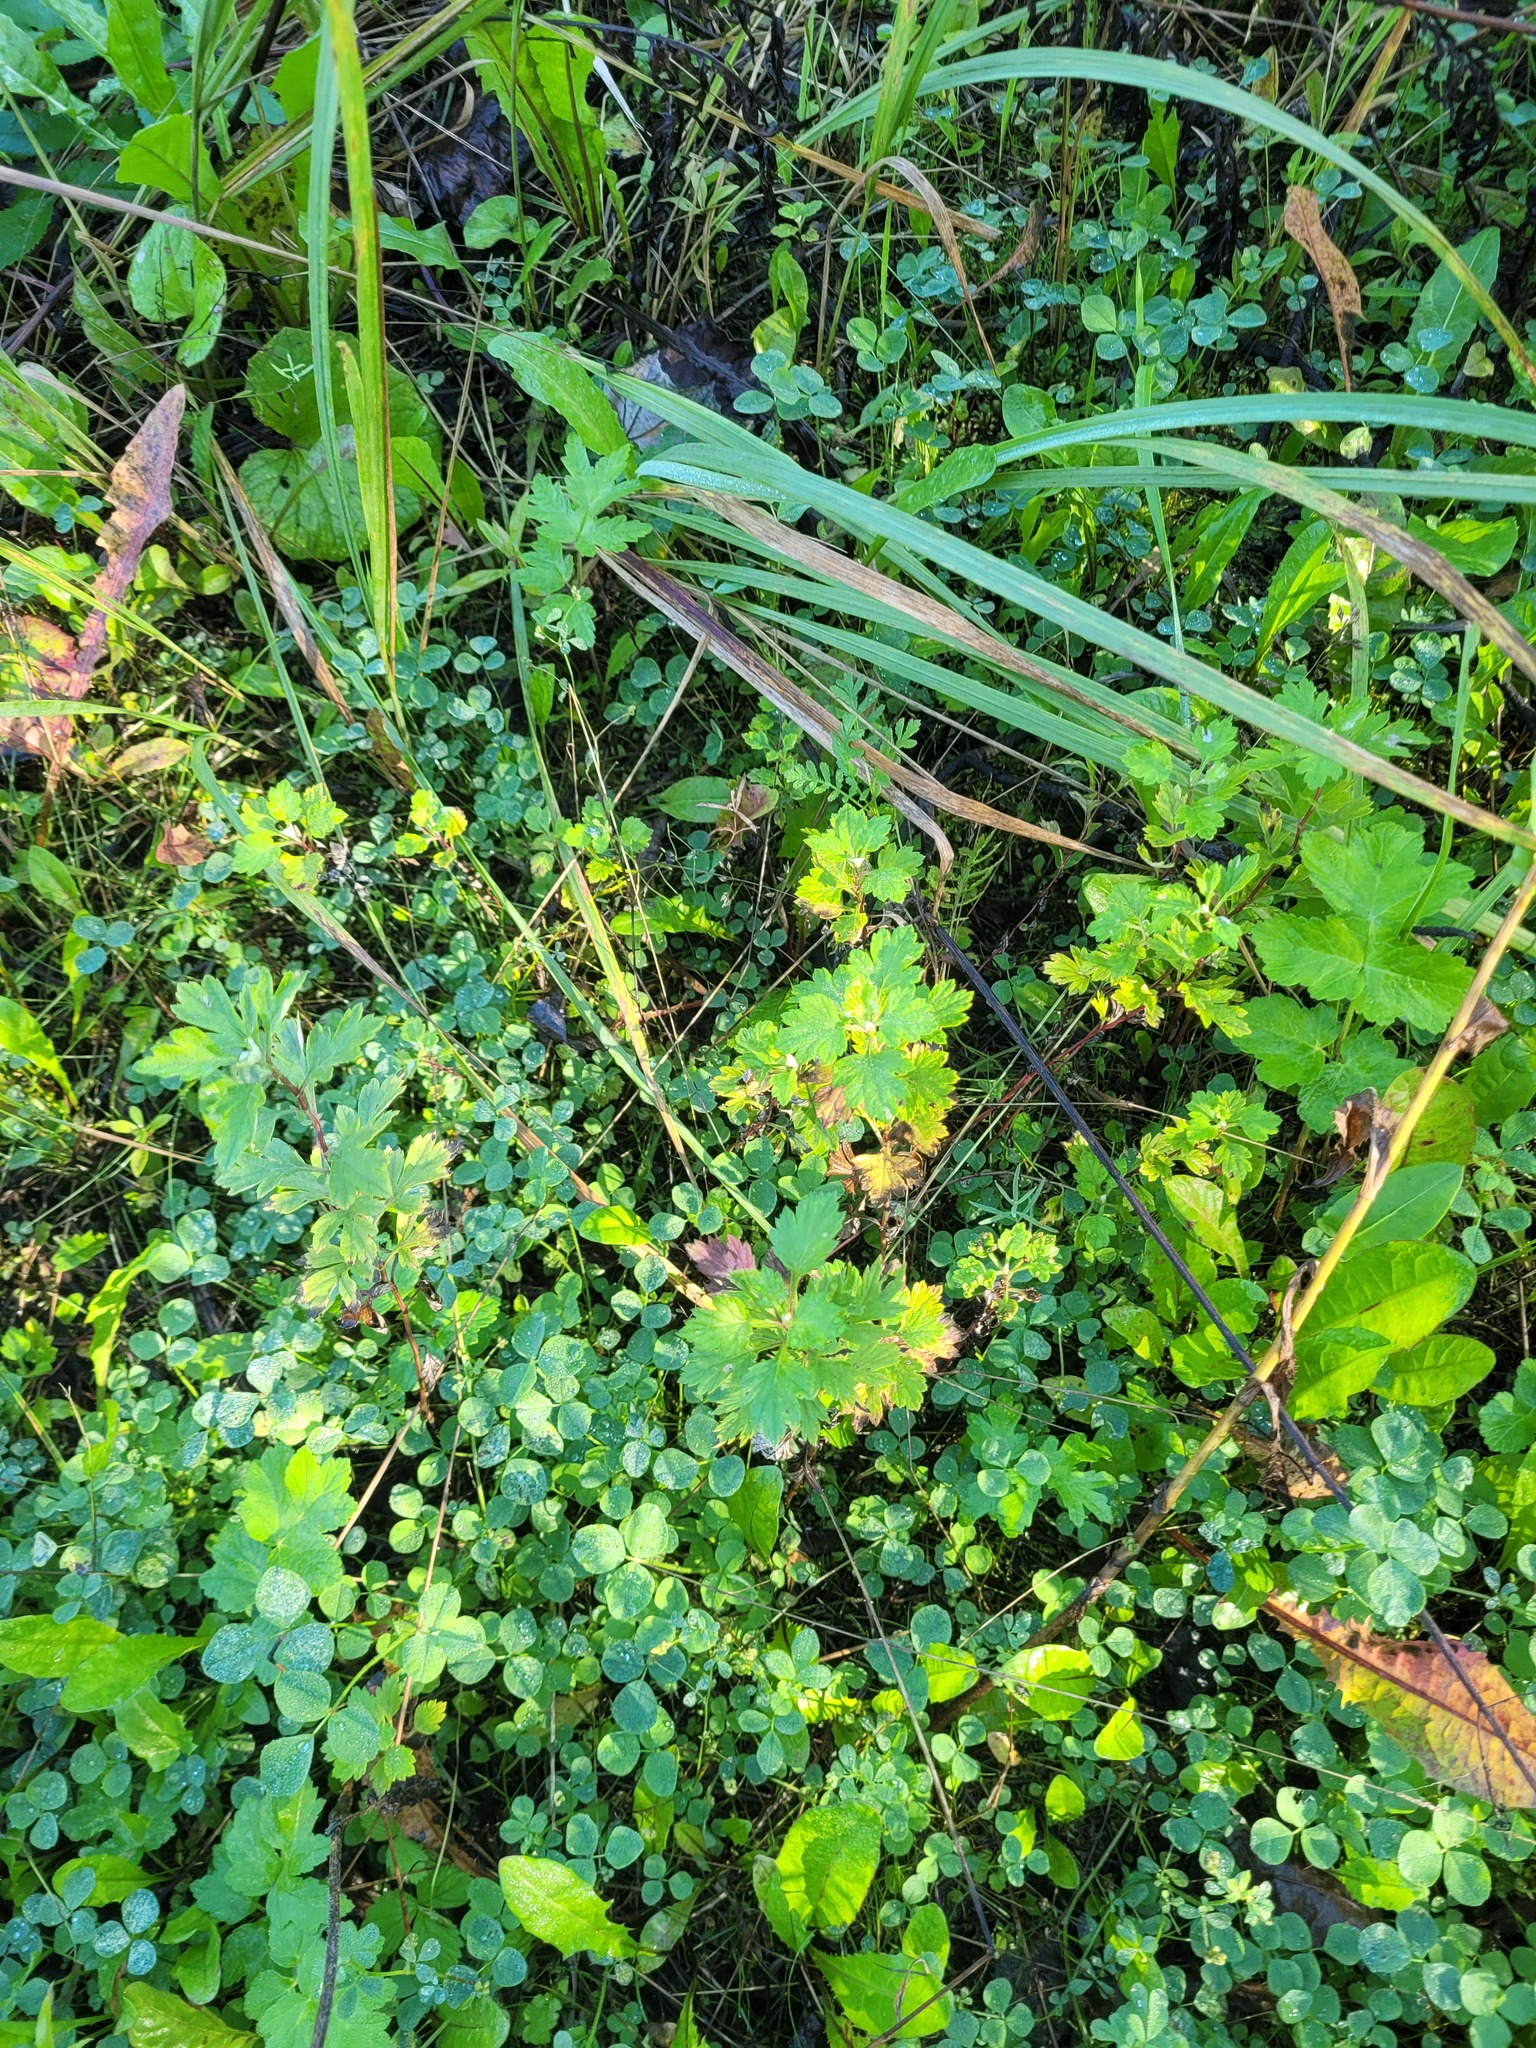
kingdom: Plantae
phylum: Tracheophyta
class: Magnoliopsida
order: Asterales
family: Asteraceae
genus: Artemisia
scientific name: Artemisia vulgaris
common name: Mugwort
